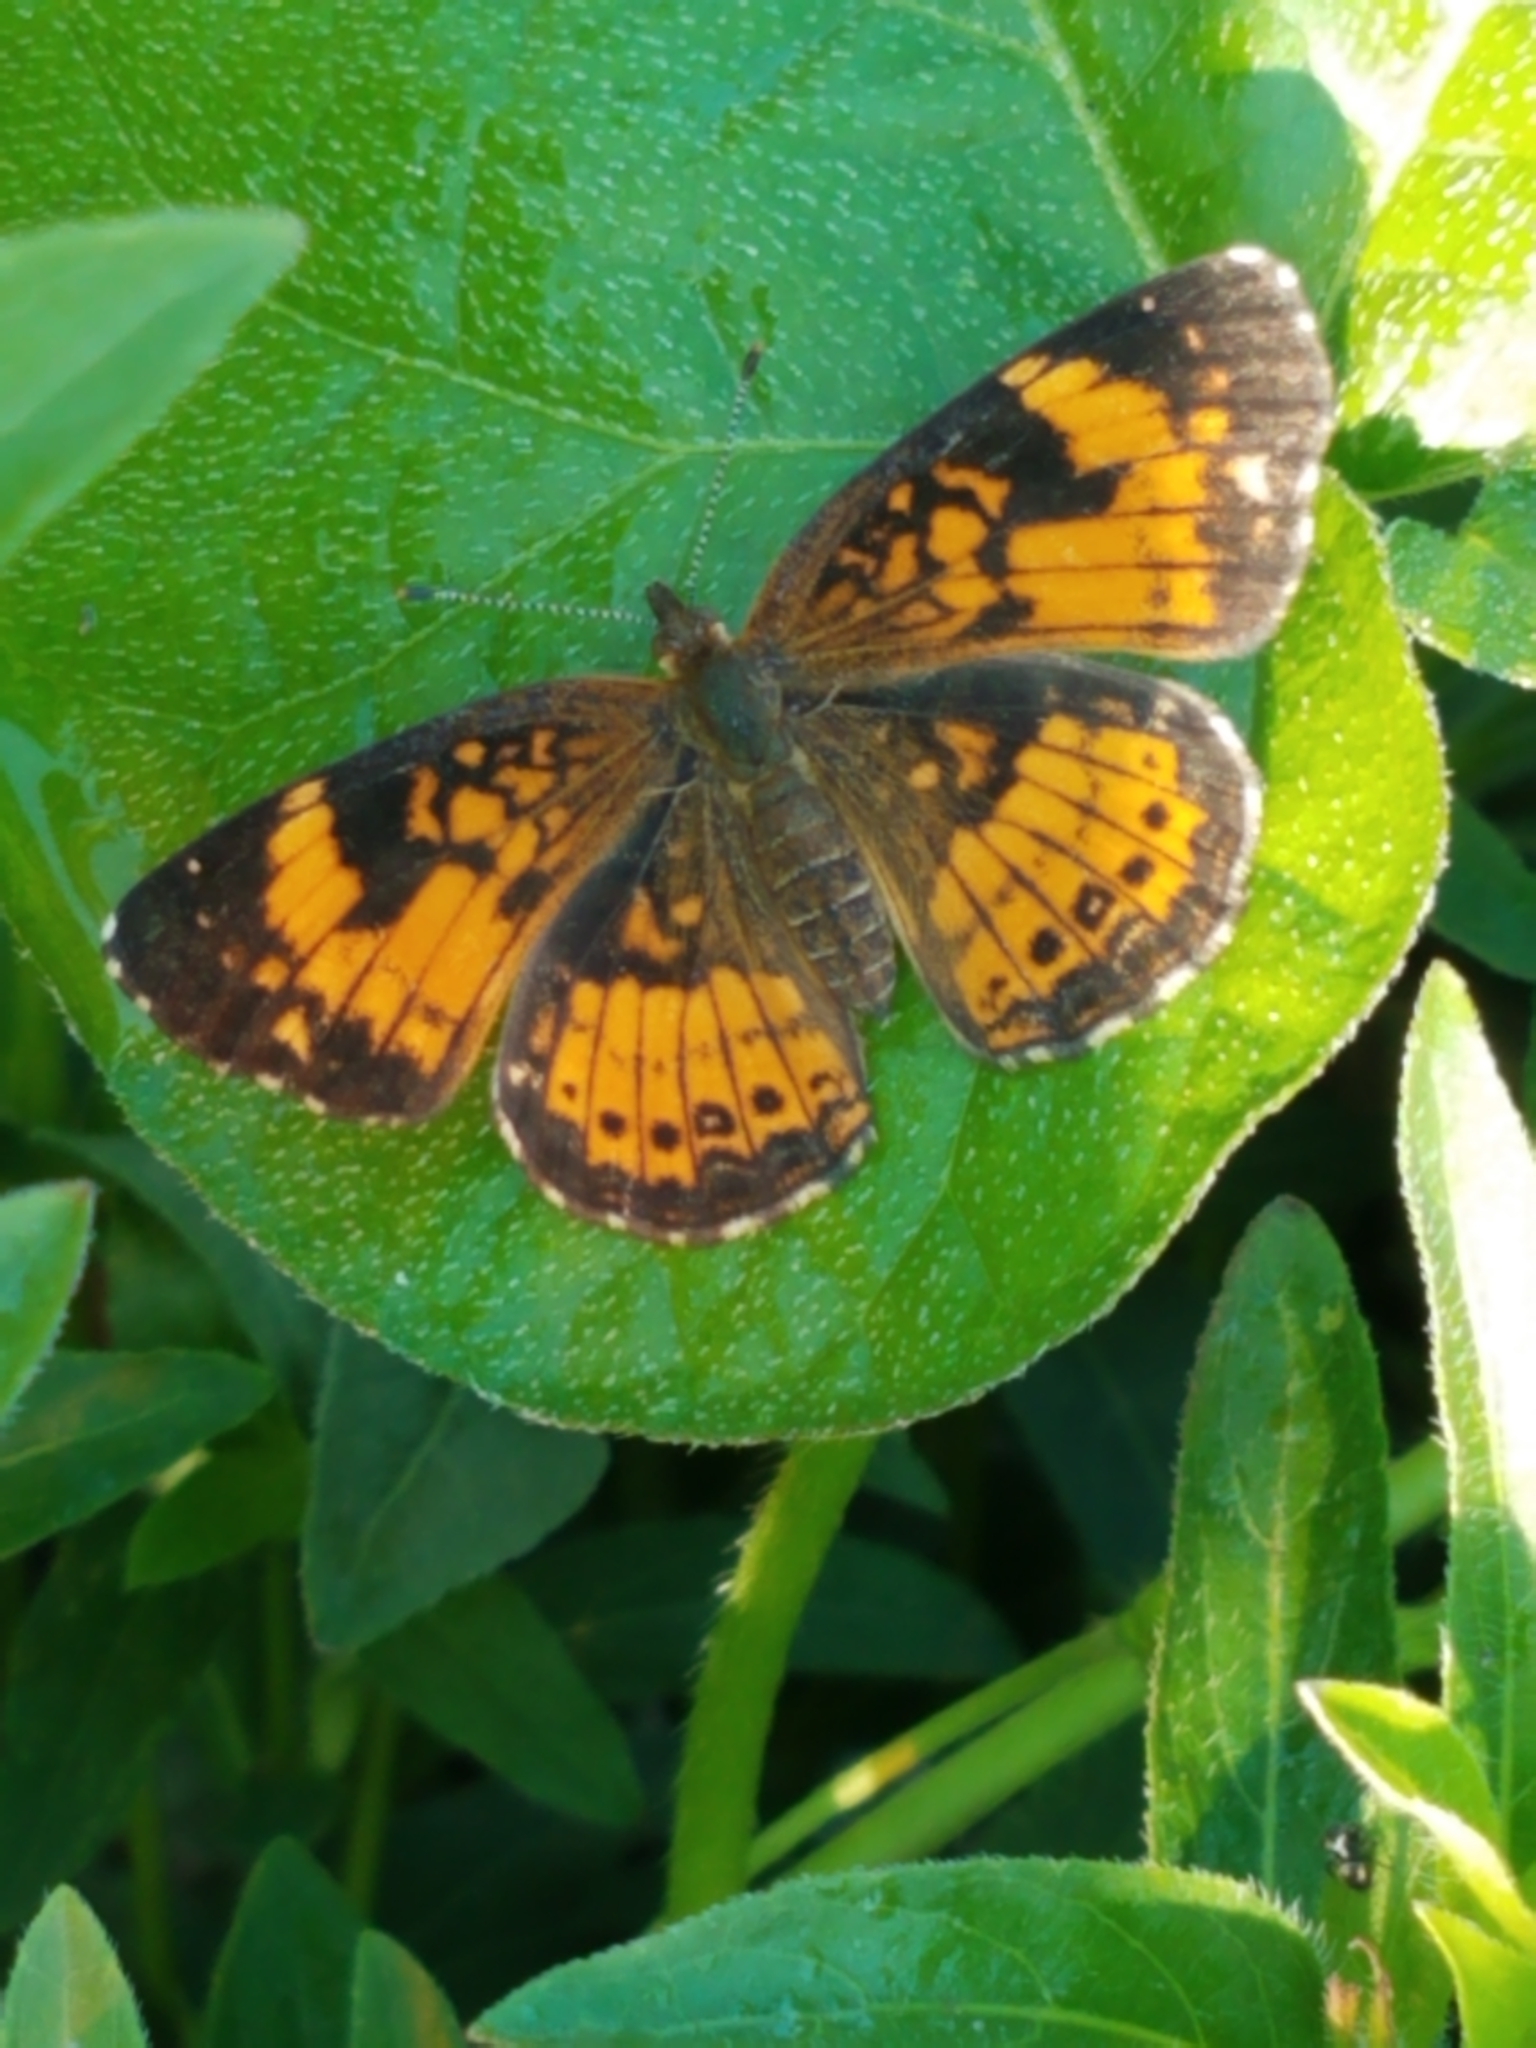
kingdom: Animalia
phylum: Arthropoda
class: Insecta
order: Lepidoptera
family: Nymphalidae
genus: Chlosyne
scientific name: Chlosyne nycteis
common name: Silvery checkerspot
